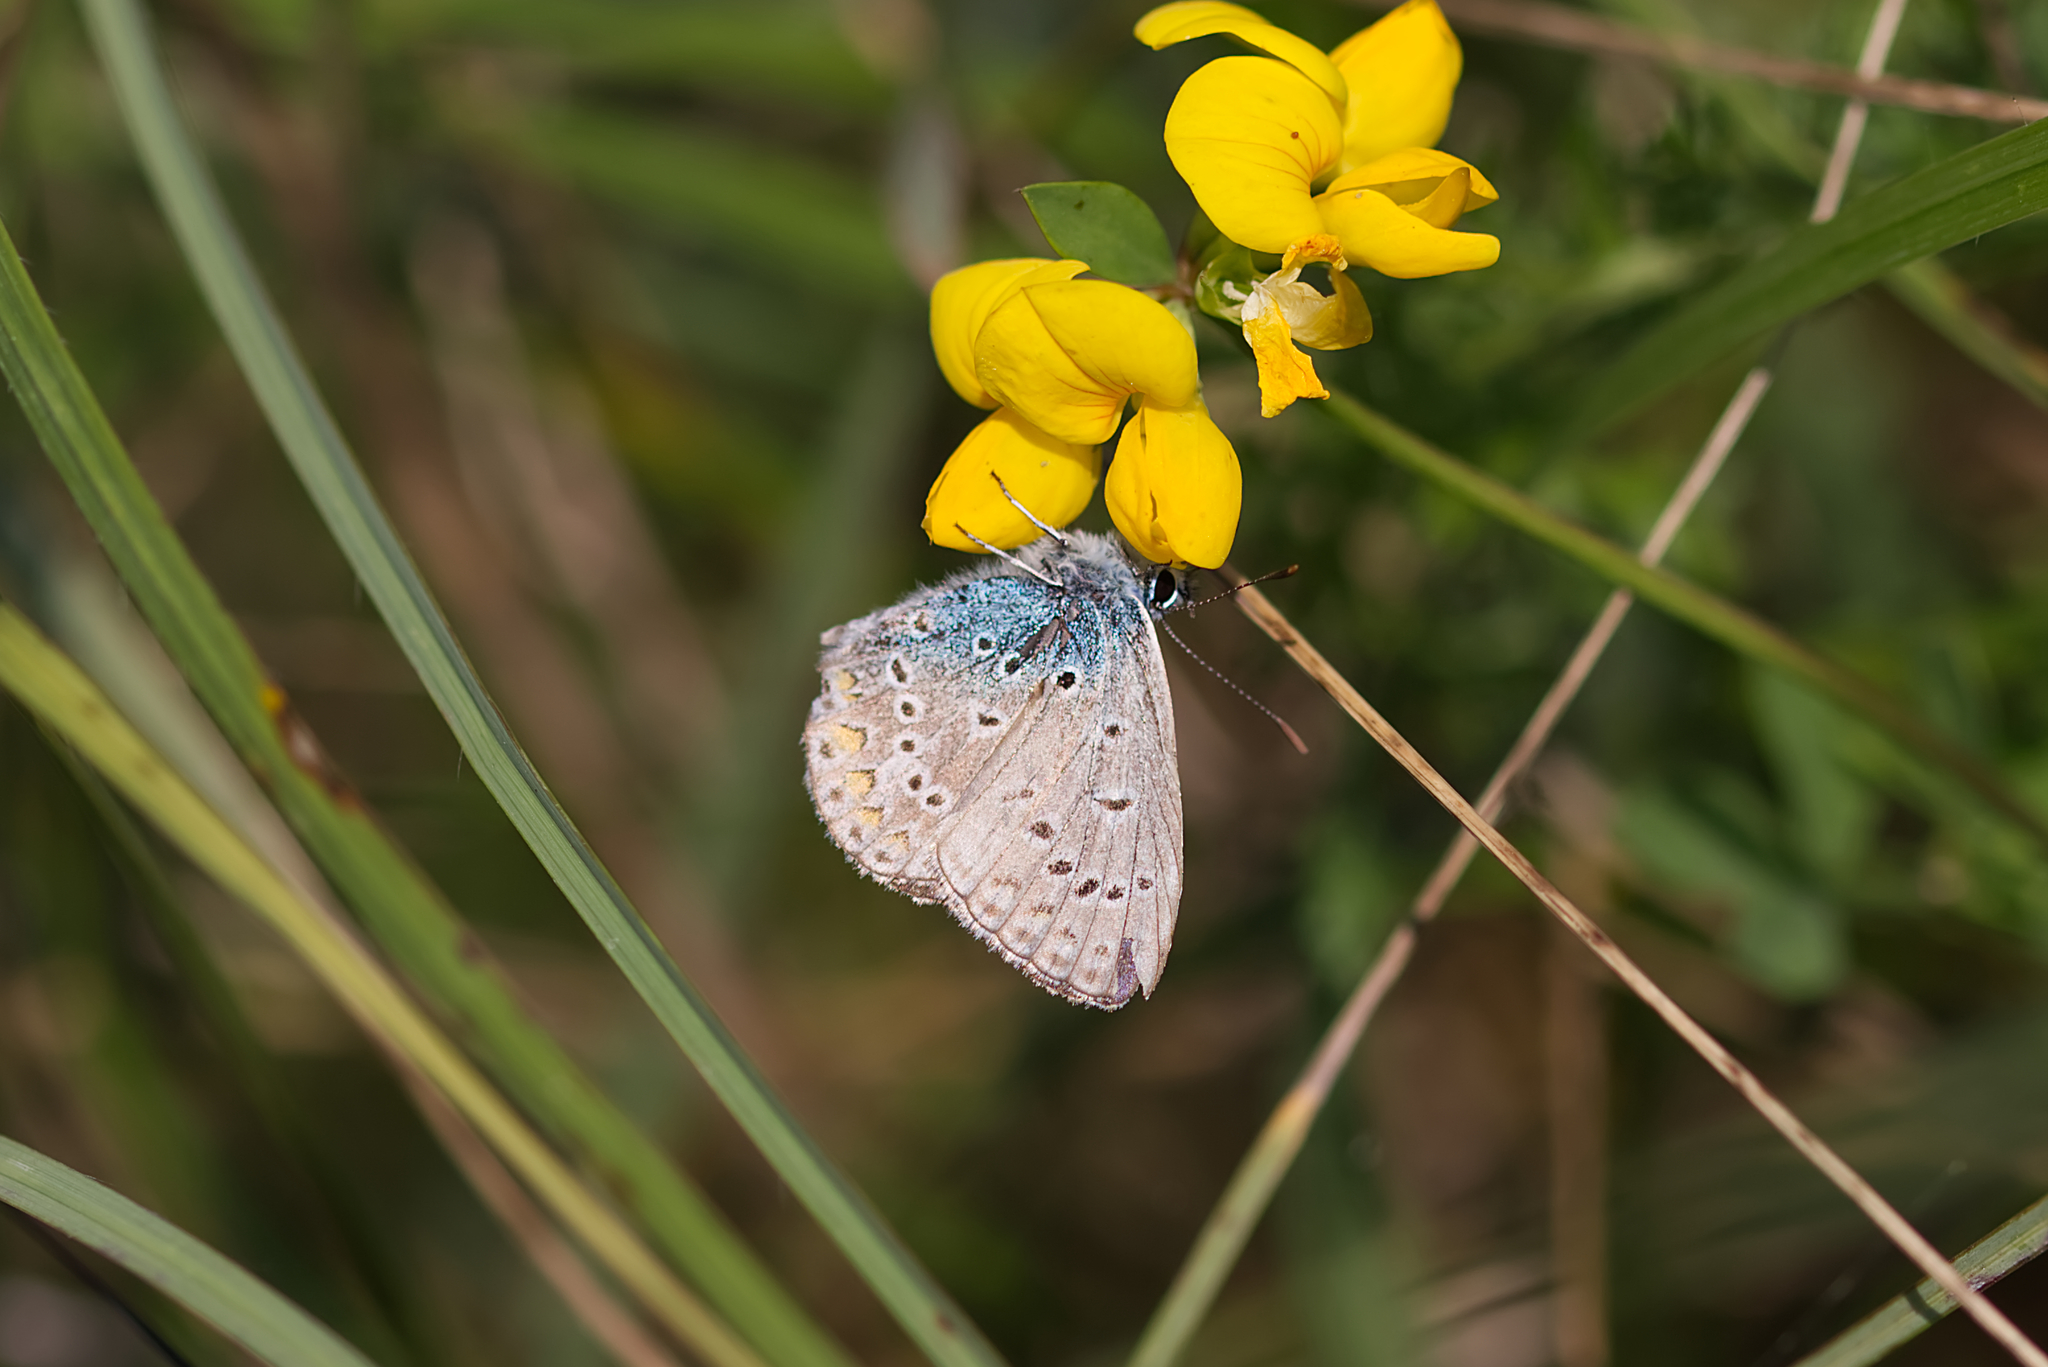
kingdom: Animalia
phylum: Arthropoda
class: Insecta
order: Lepidoptera
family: Lycaenidae
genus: Polyommatus
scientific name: Polyommatus icarus
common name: Common blue
